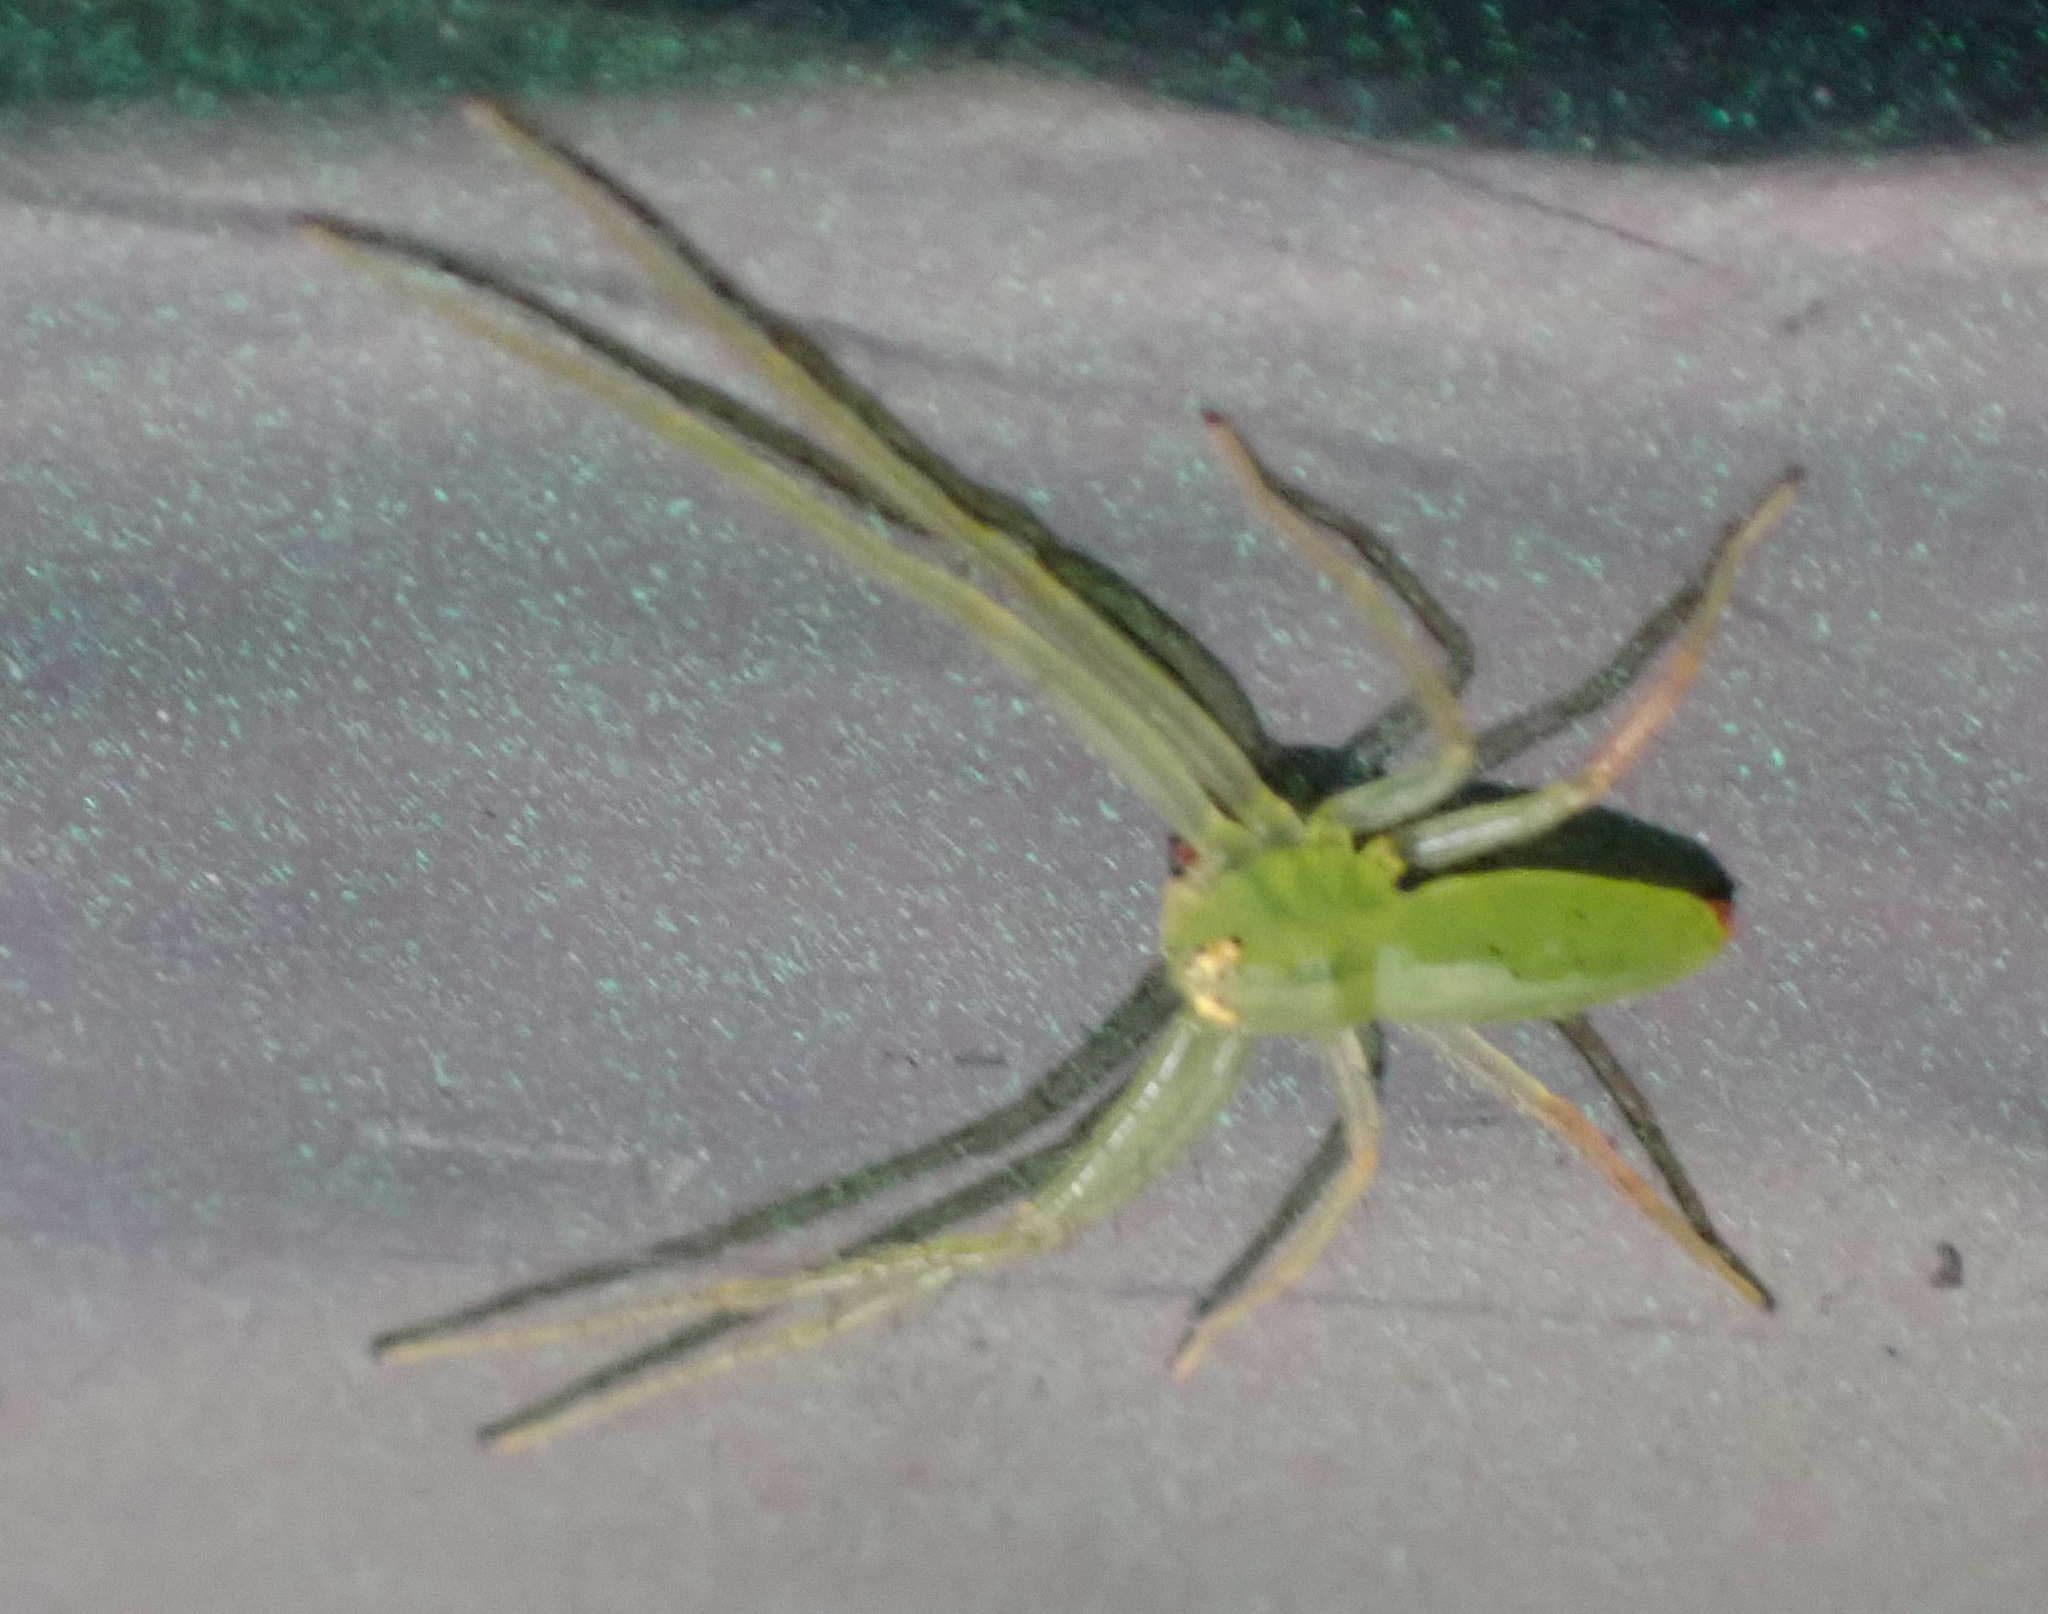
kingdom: Animalia
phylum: Arthropoda
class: Arachnida
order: Araneae
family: Thomisidae
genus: Oxytate
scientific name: Oxytate argenteooculata
